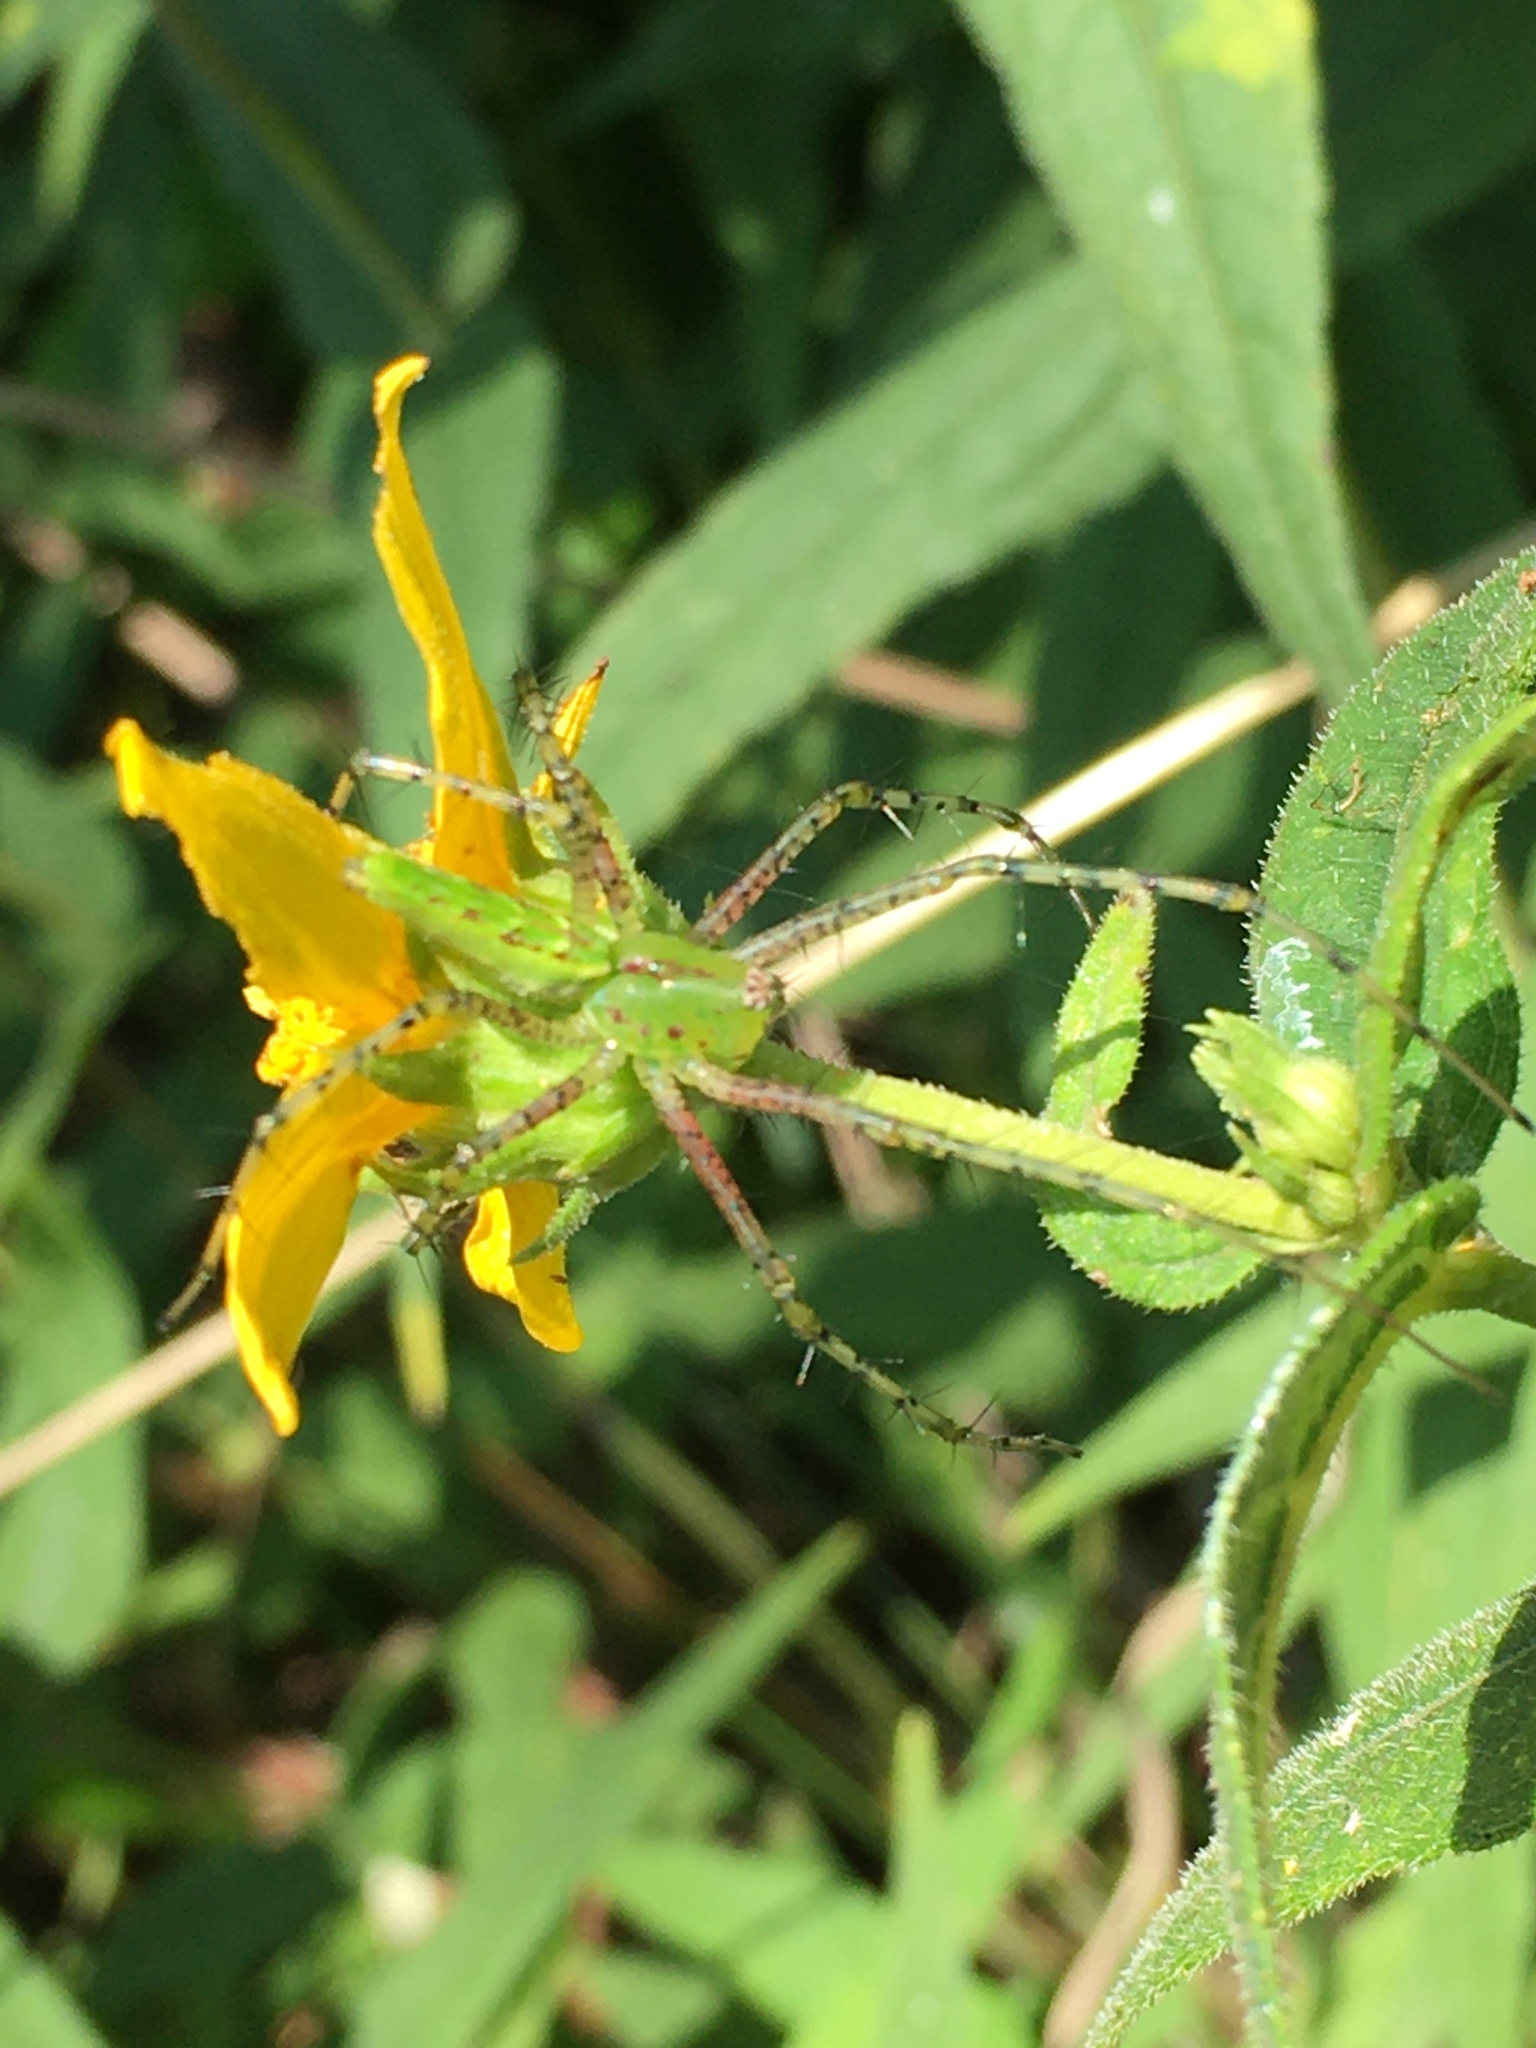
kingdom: Animalia
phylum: Arthropoda
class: Arachnida
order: Araneae
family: Oxyopidae
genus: Peucetia
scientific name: Peucetia viridans
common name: Lynx spiders
